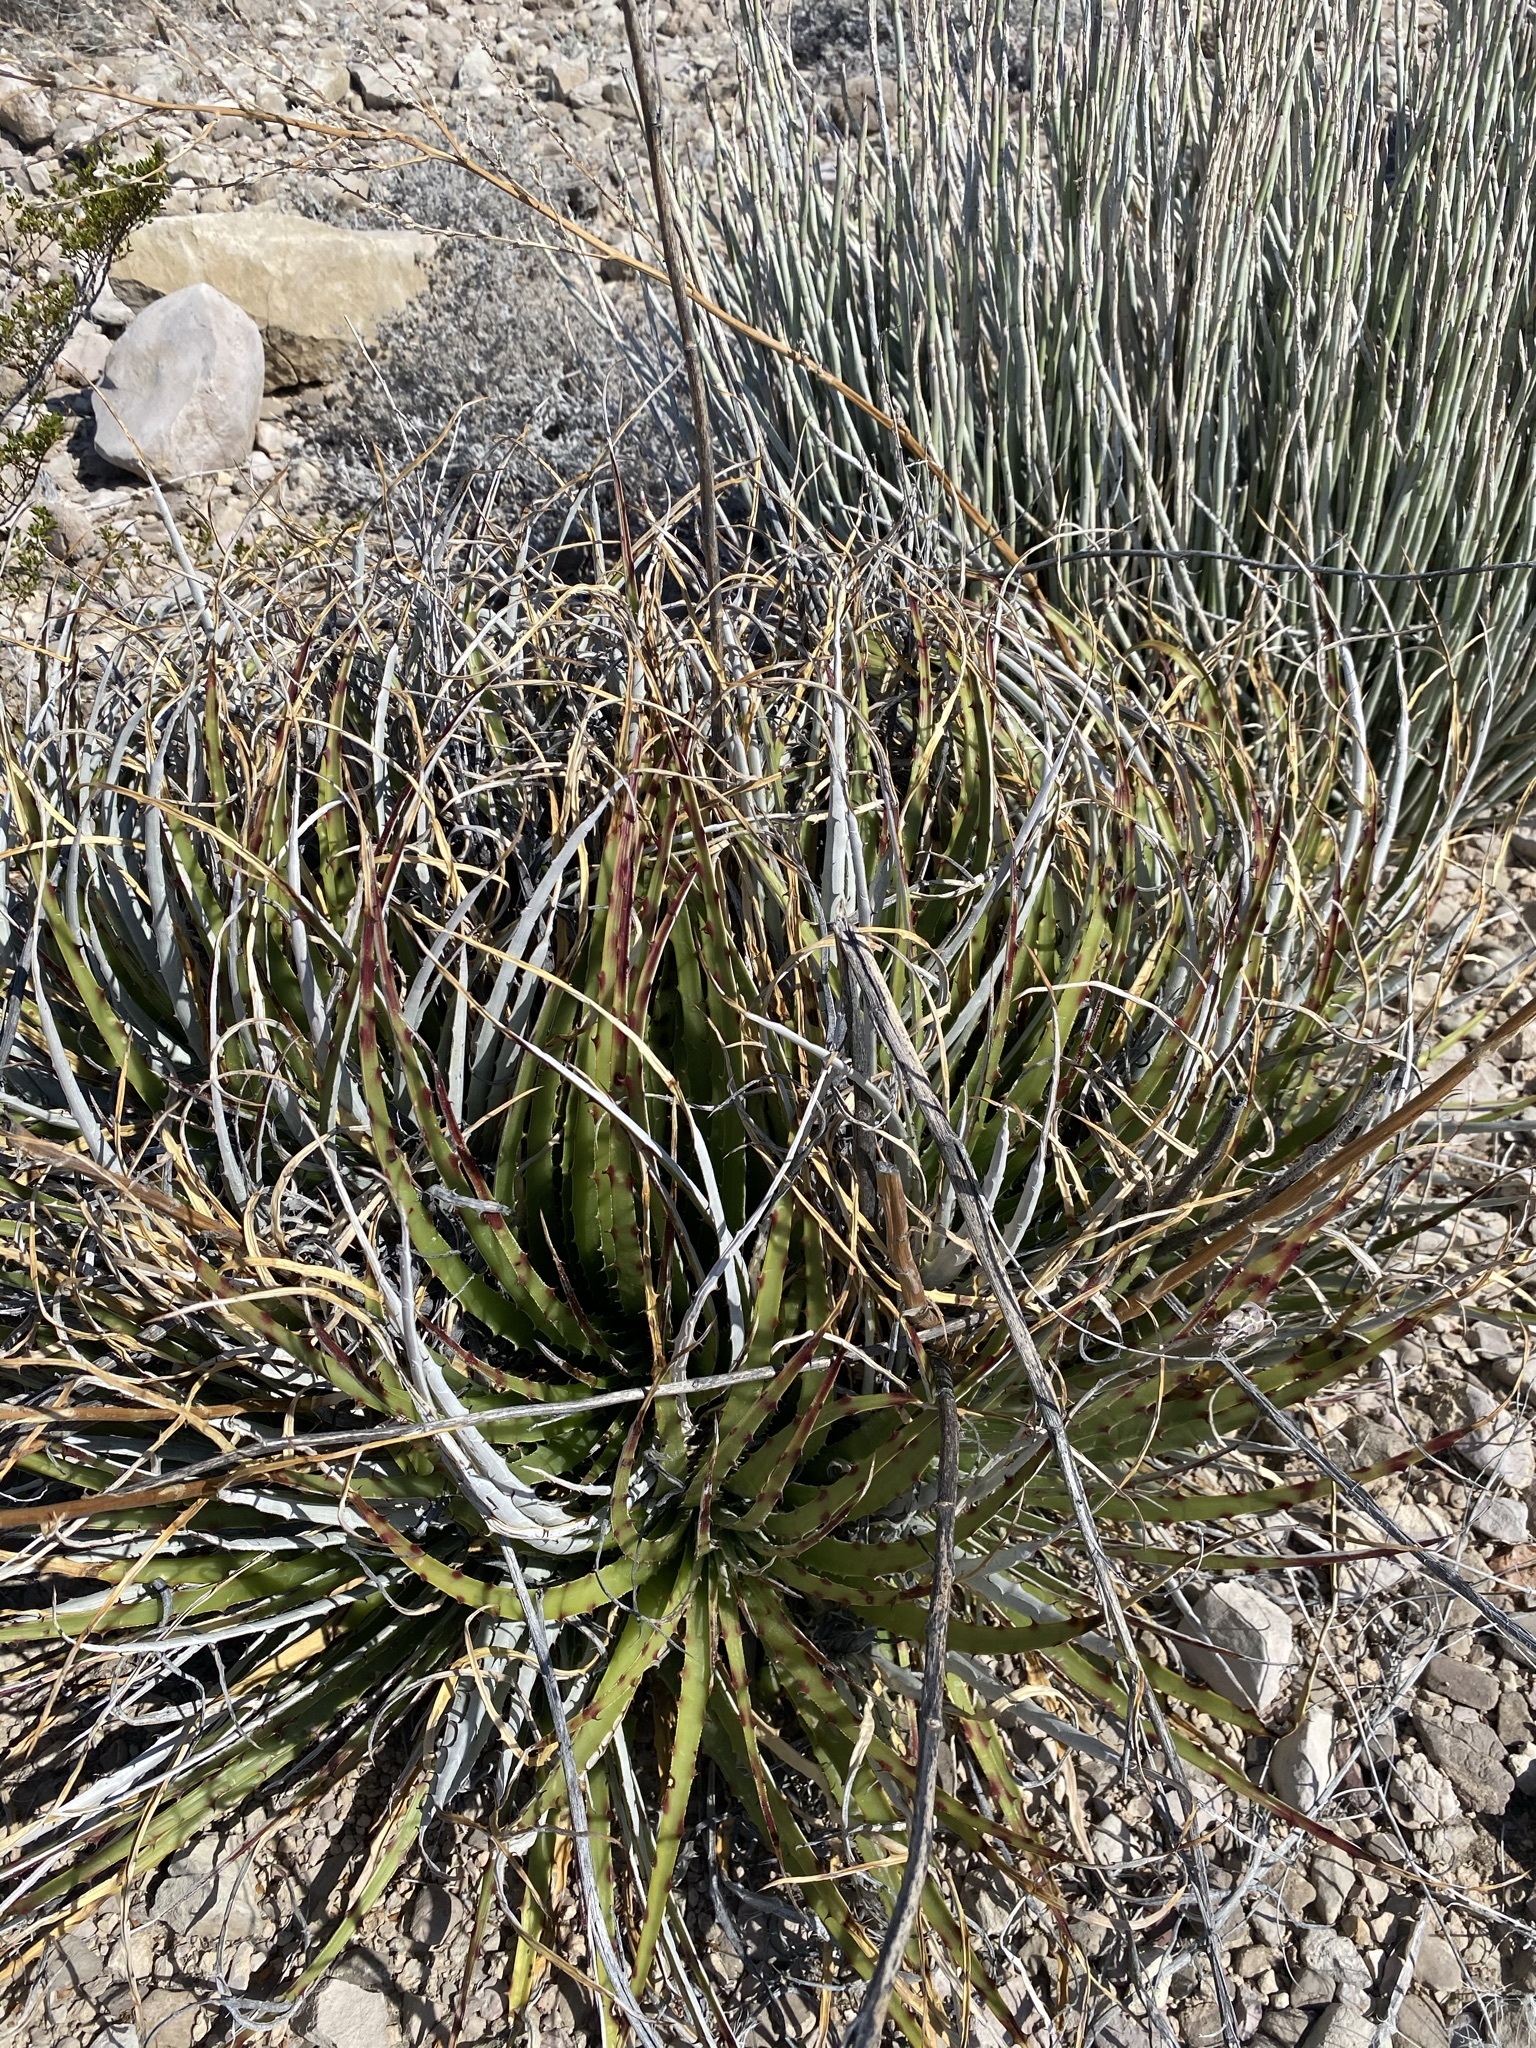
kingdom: Plantae
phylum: Tracheophyta
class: Liliopsida
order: Poales
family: Bromeliaceae
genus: Hechtia
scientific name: Hechtia texensis
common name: False agave
